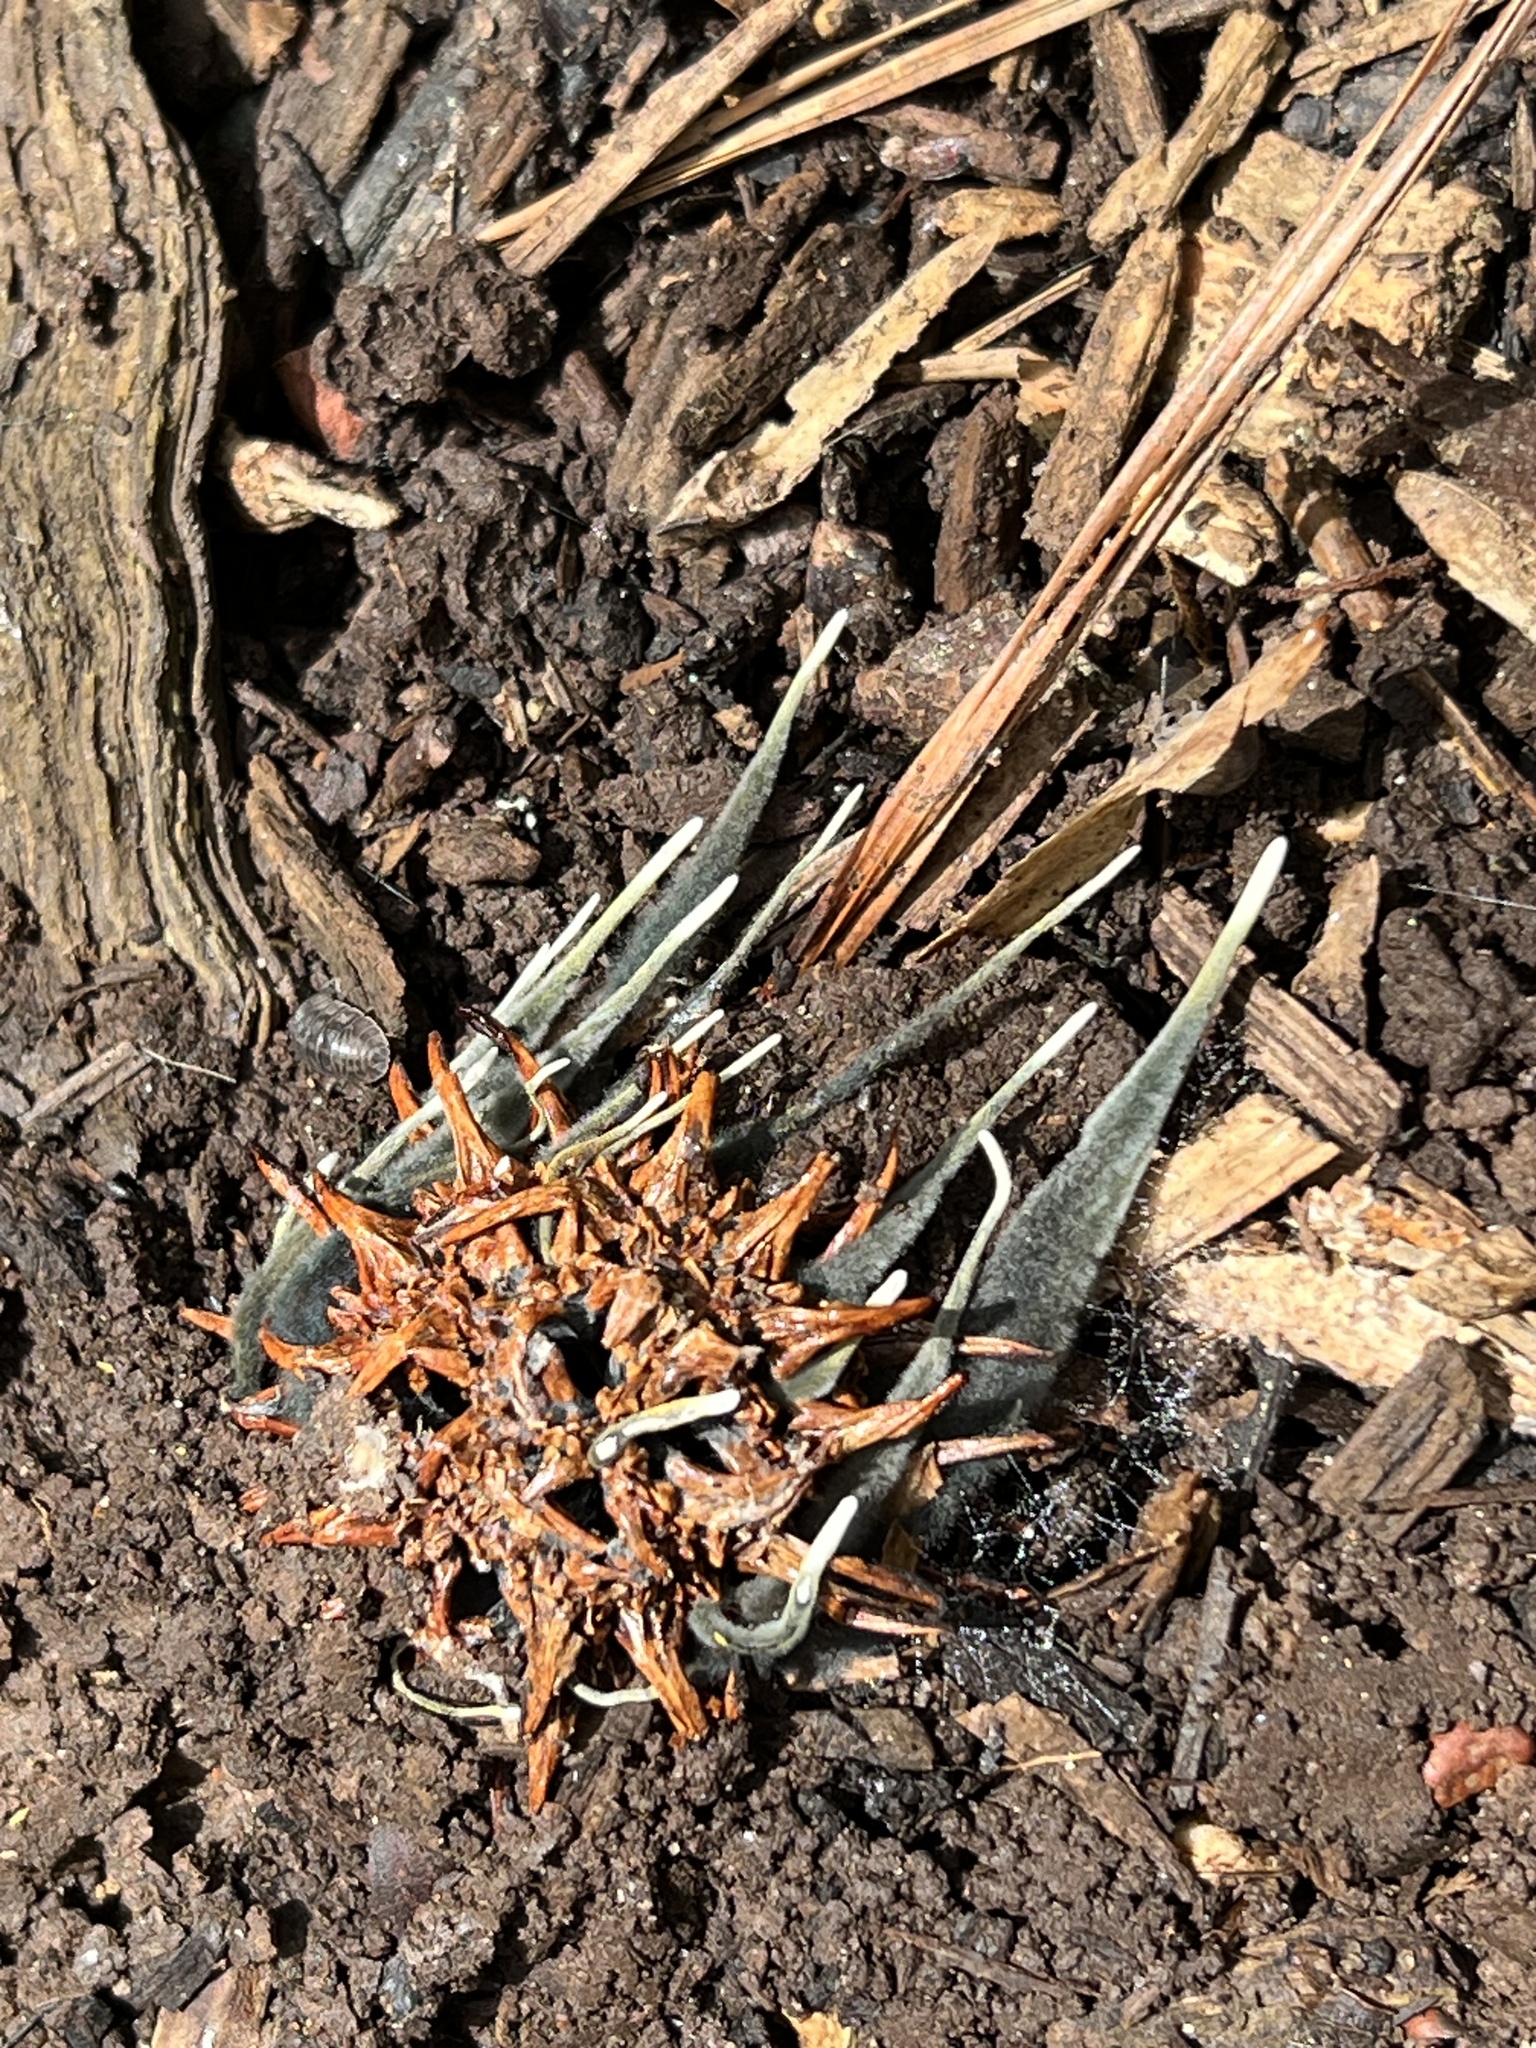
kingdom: Fungi
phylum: Ascomycota
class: Sordariomycetes
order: Xylariales
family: Xylariaceae
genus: Xylaria
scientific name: Xylaria liquidambaris
